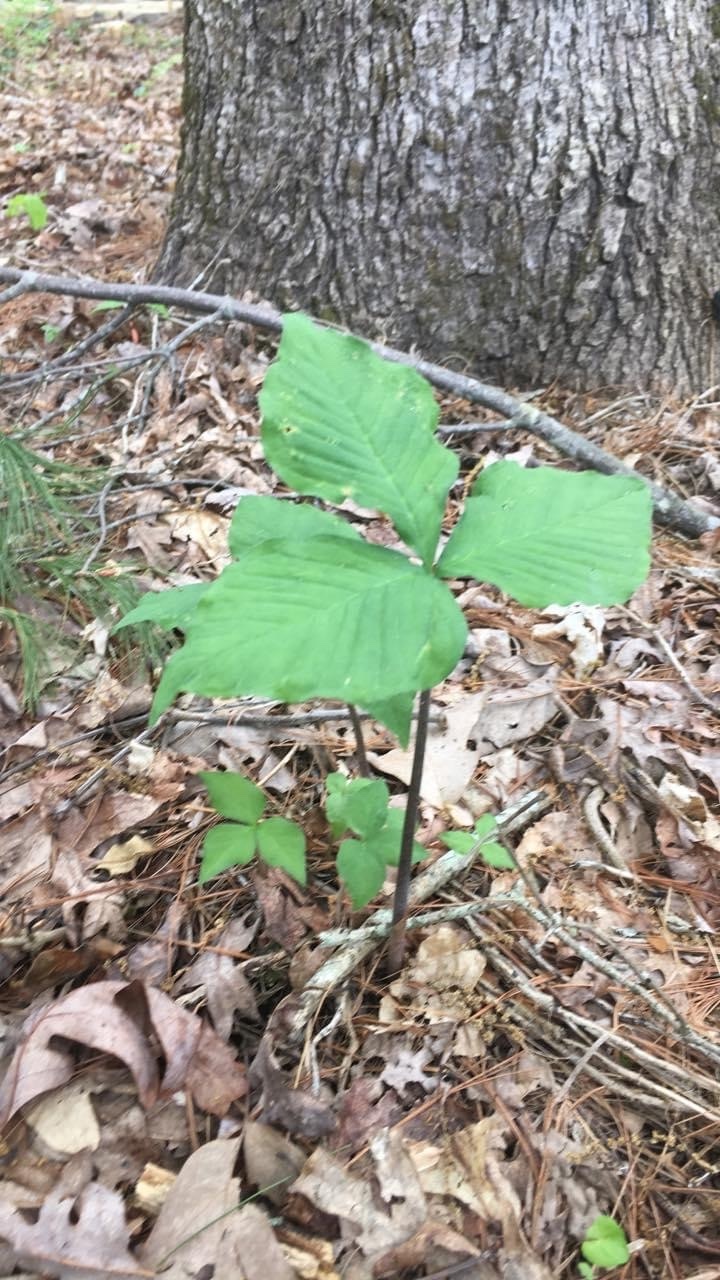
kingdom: Plantae
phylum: Tracheophyta
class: Liliopsida
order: Alismatales
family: Araceae
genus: Arisaema
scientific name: Arisaema triphyllum
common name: Jack-in-the-pulpit
